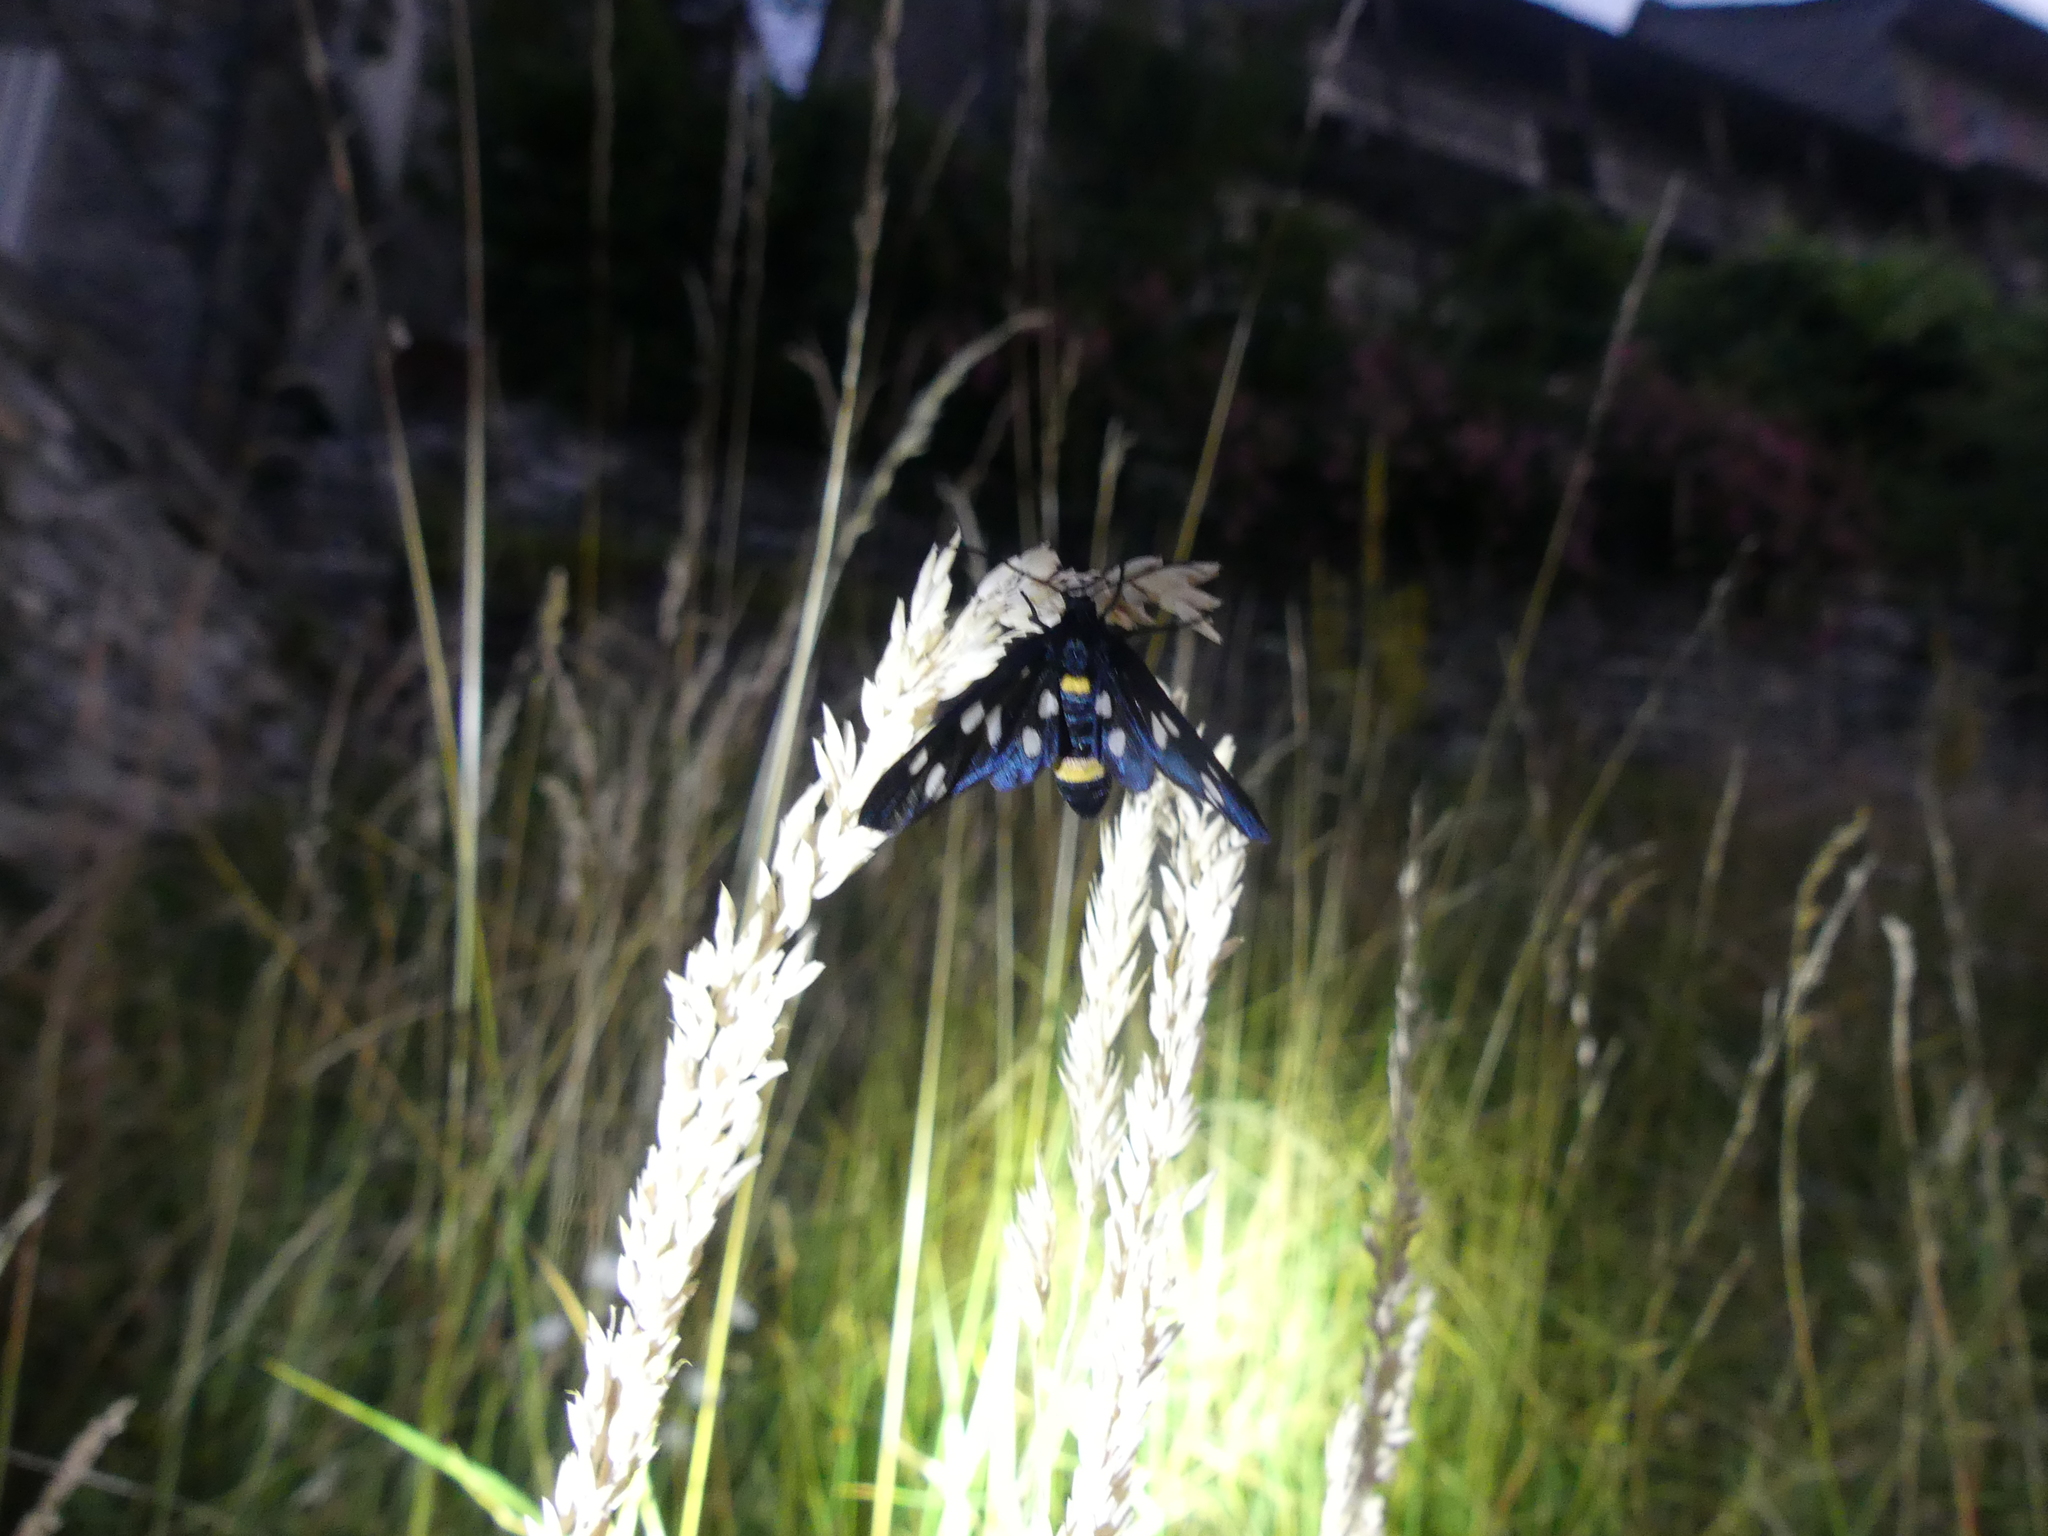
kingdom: Animalia
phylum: Arthropoda
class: Insecta
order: Lepidoptera
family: Erebidae
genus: Amata
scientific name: Amata phegea
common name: Nine-spotted
